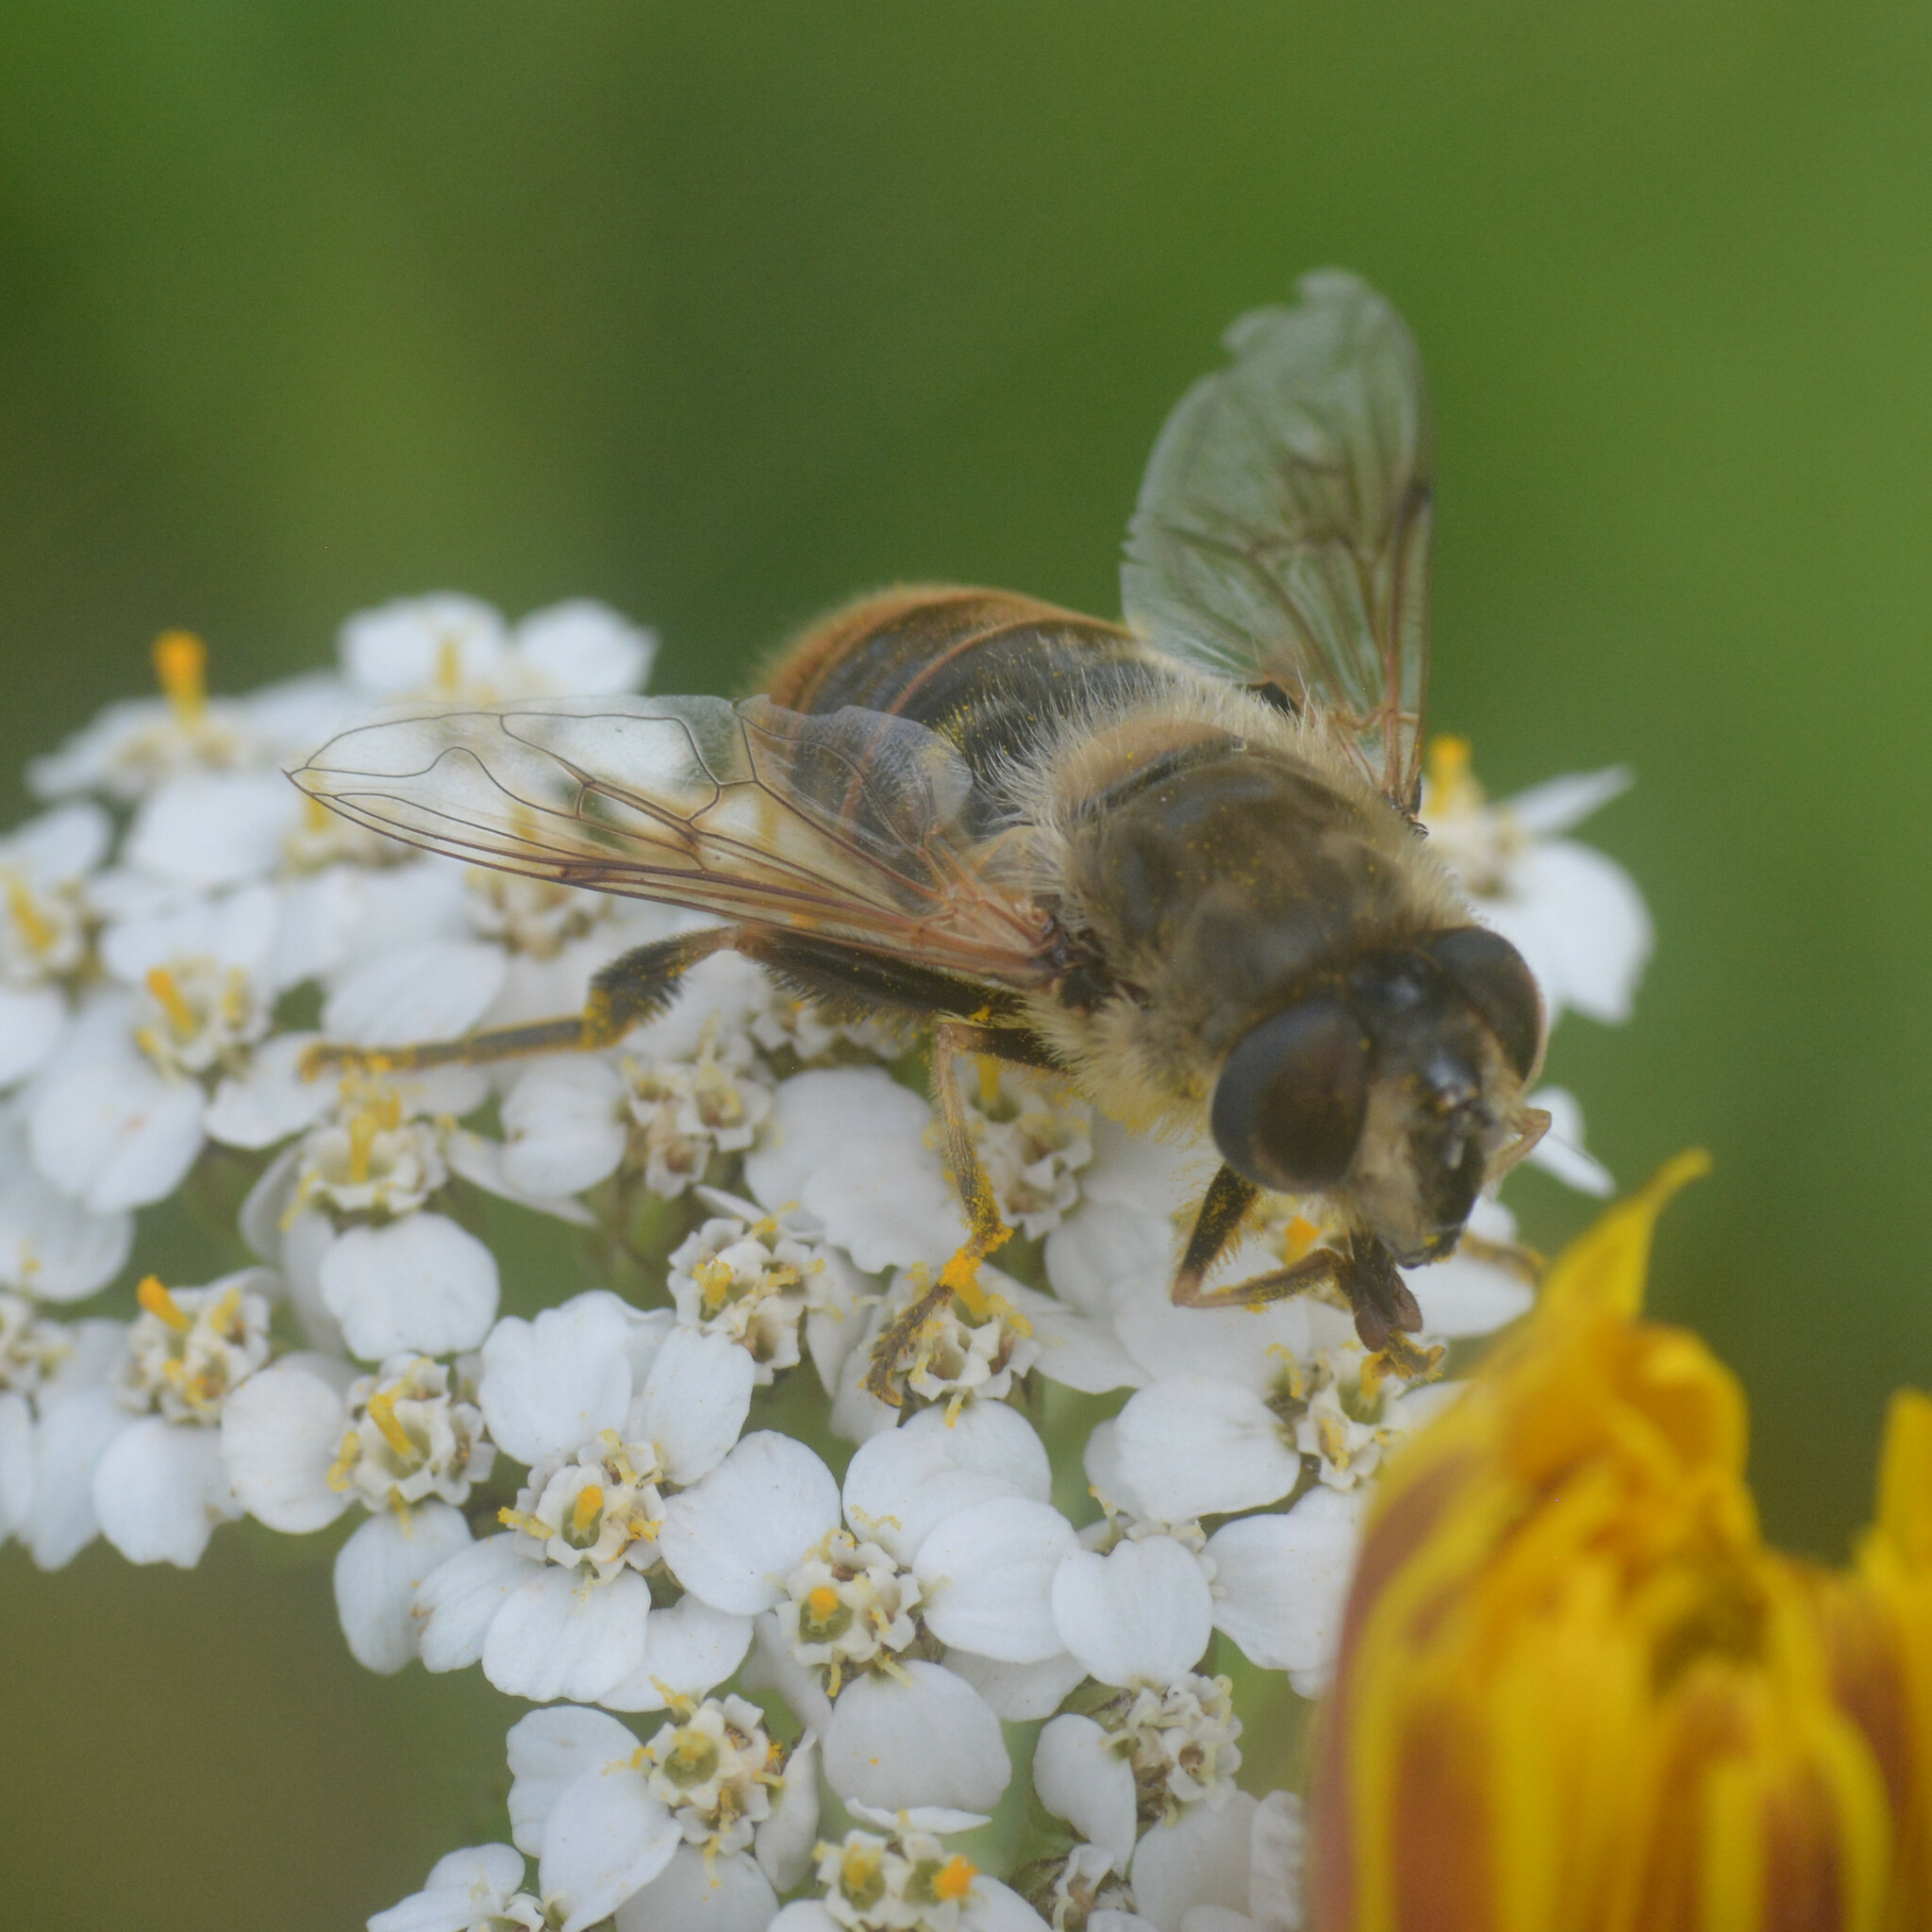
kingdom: Animalia
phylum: Arthropoda
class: Insecta
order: Diptera
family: Syrphidae
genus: Eristalis
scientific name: Eristalis tenax
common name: Drone fly
